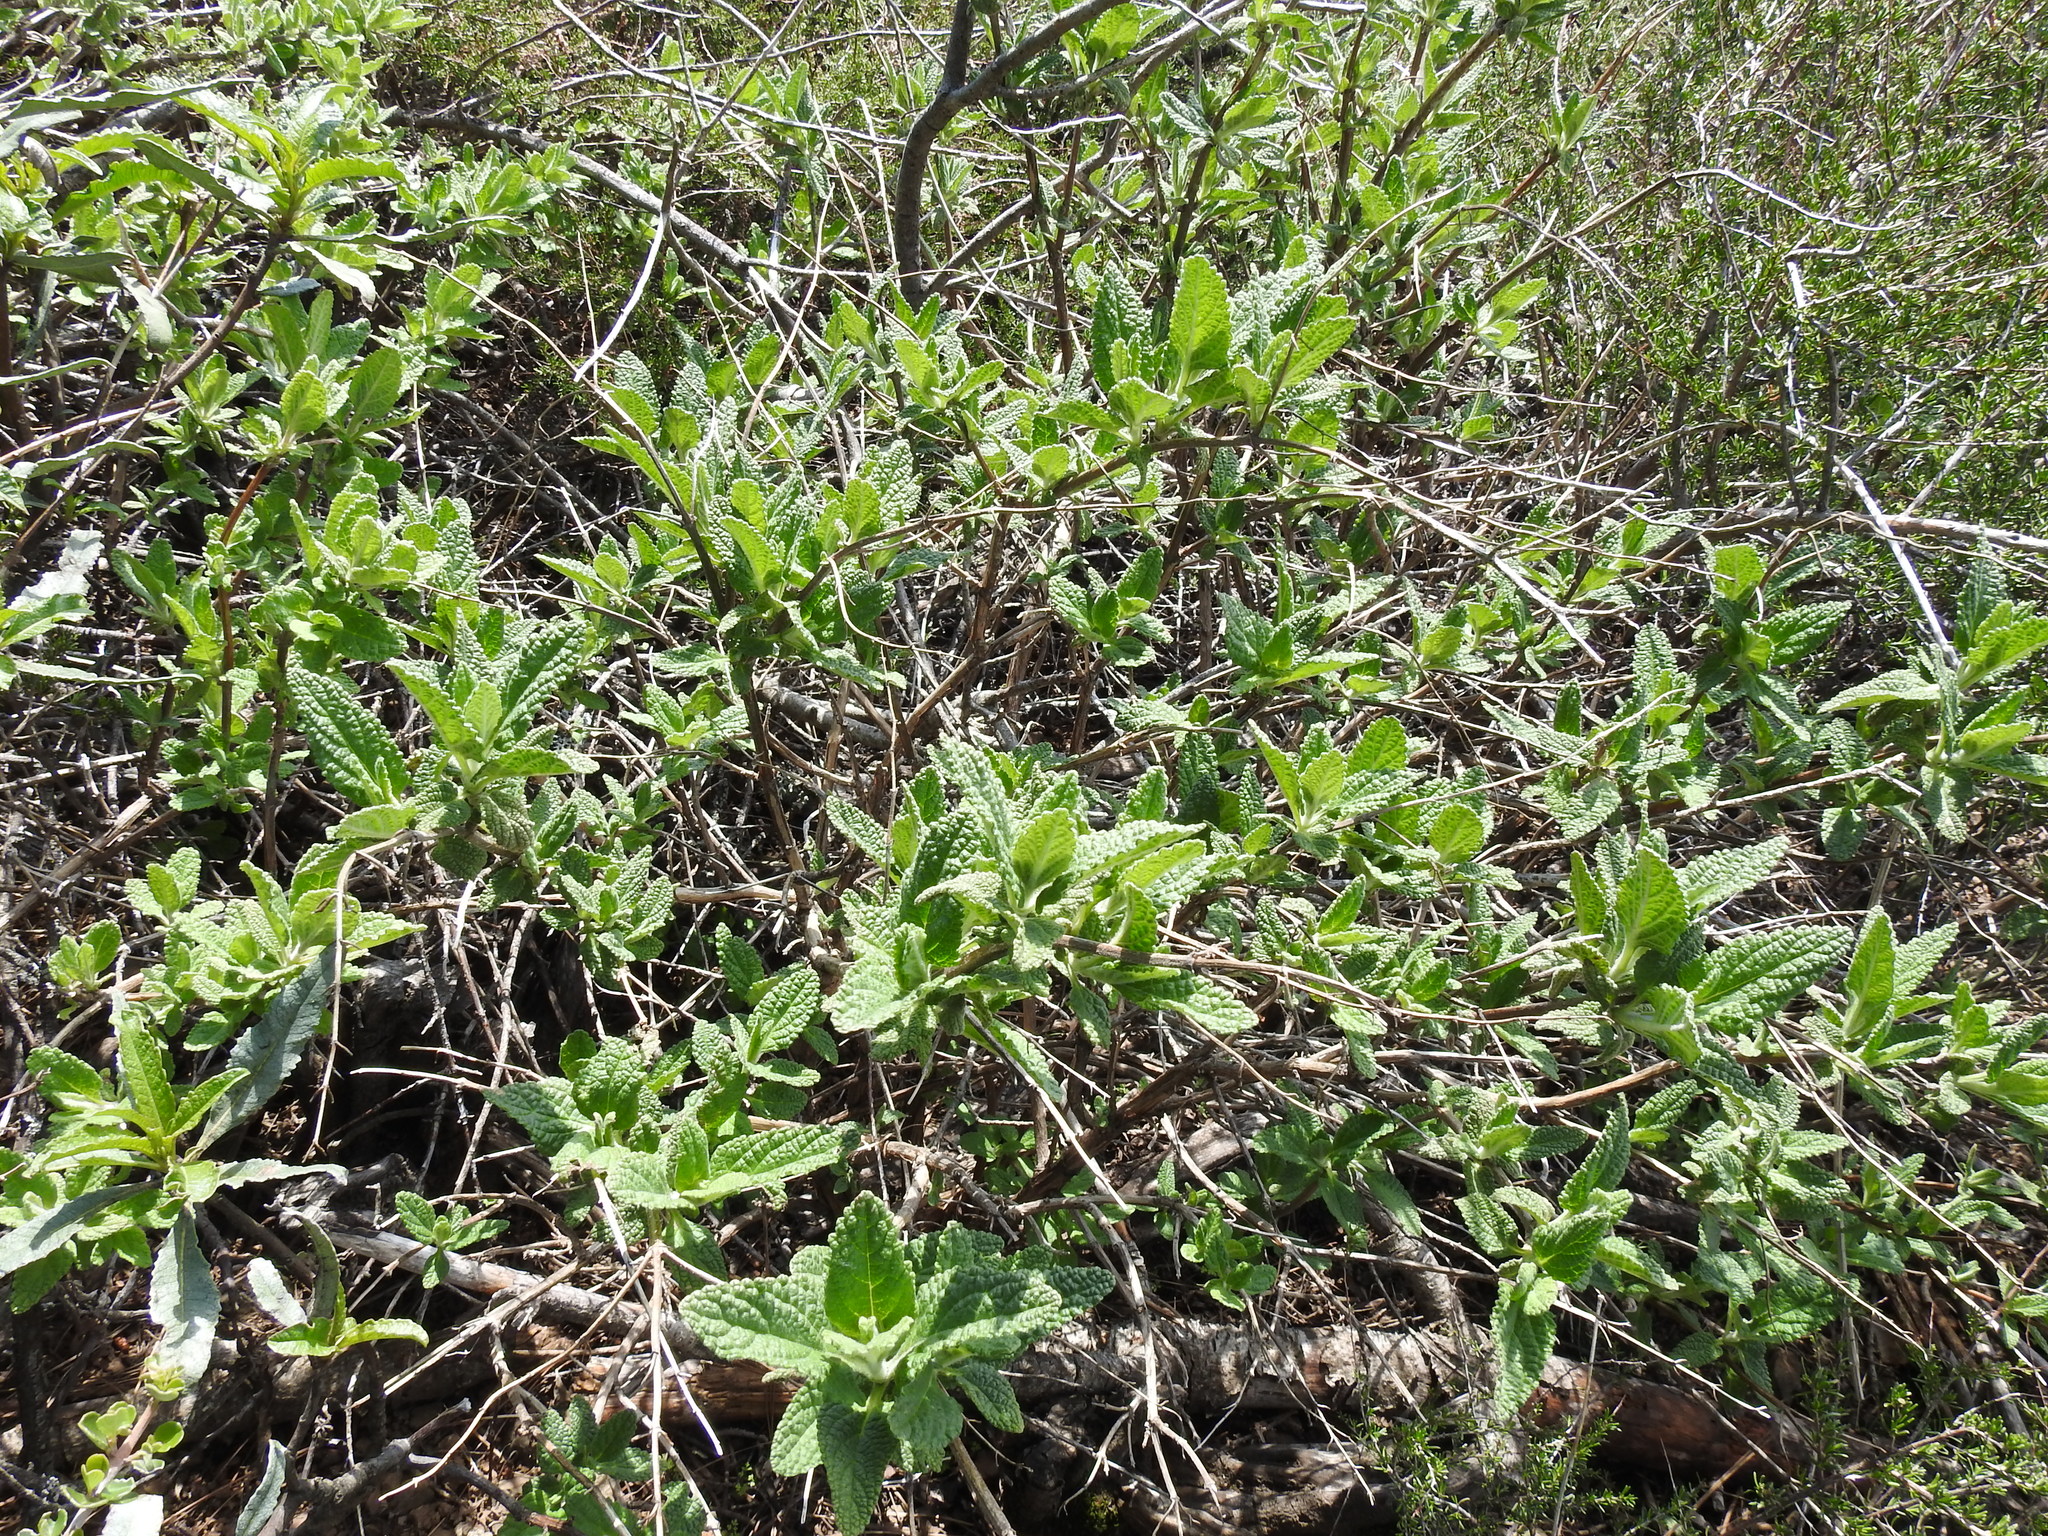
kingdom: Plantae
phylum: Tracheophyta
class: Magnoliopsida
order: Lamiales
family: Lamiaceae
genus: Lepechinia
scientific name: Lepechinia calycina
